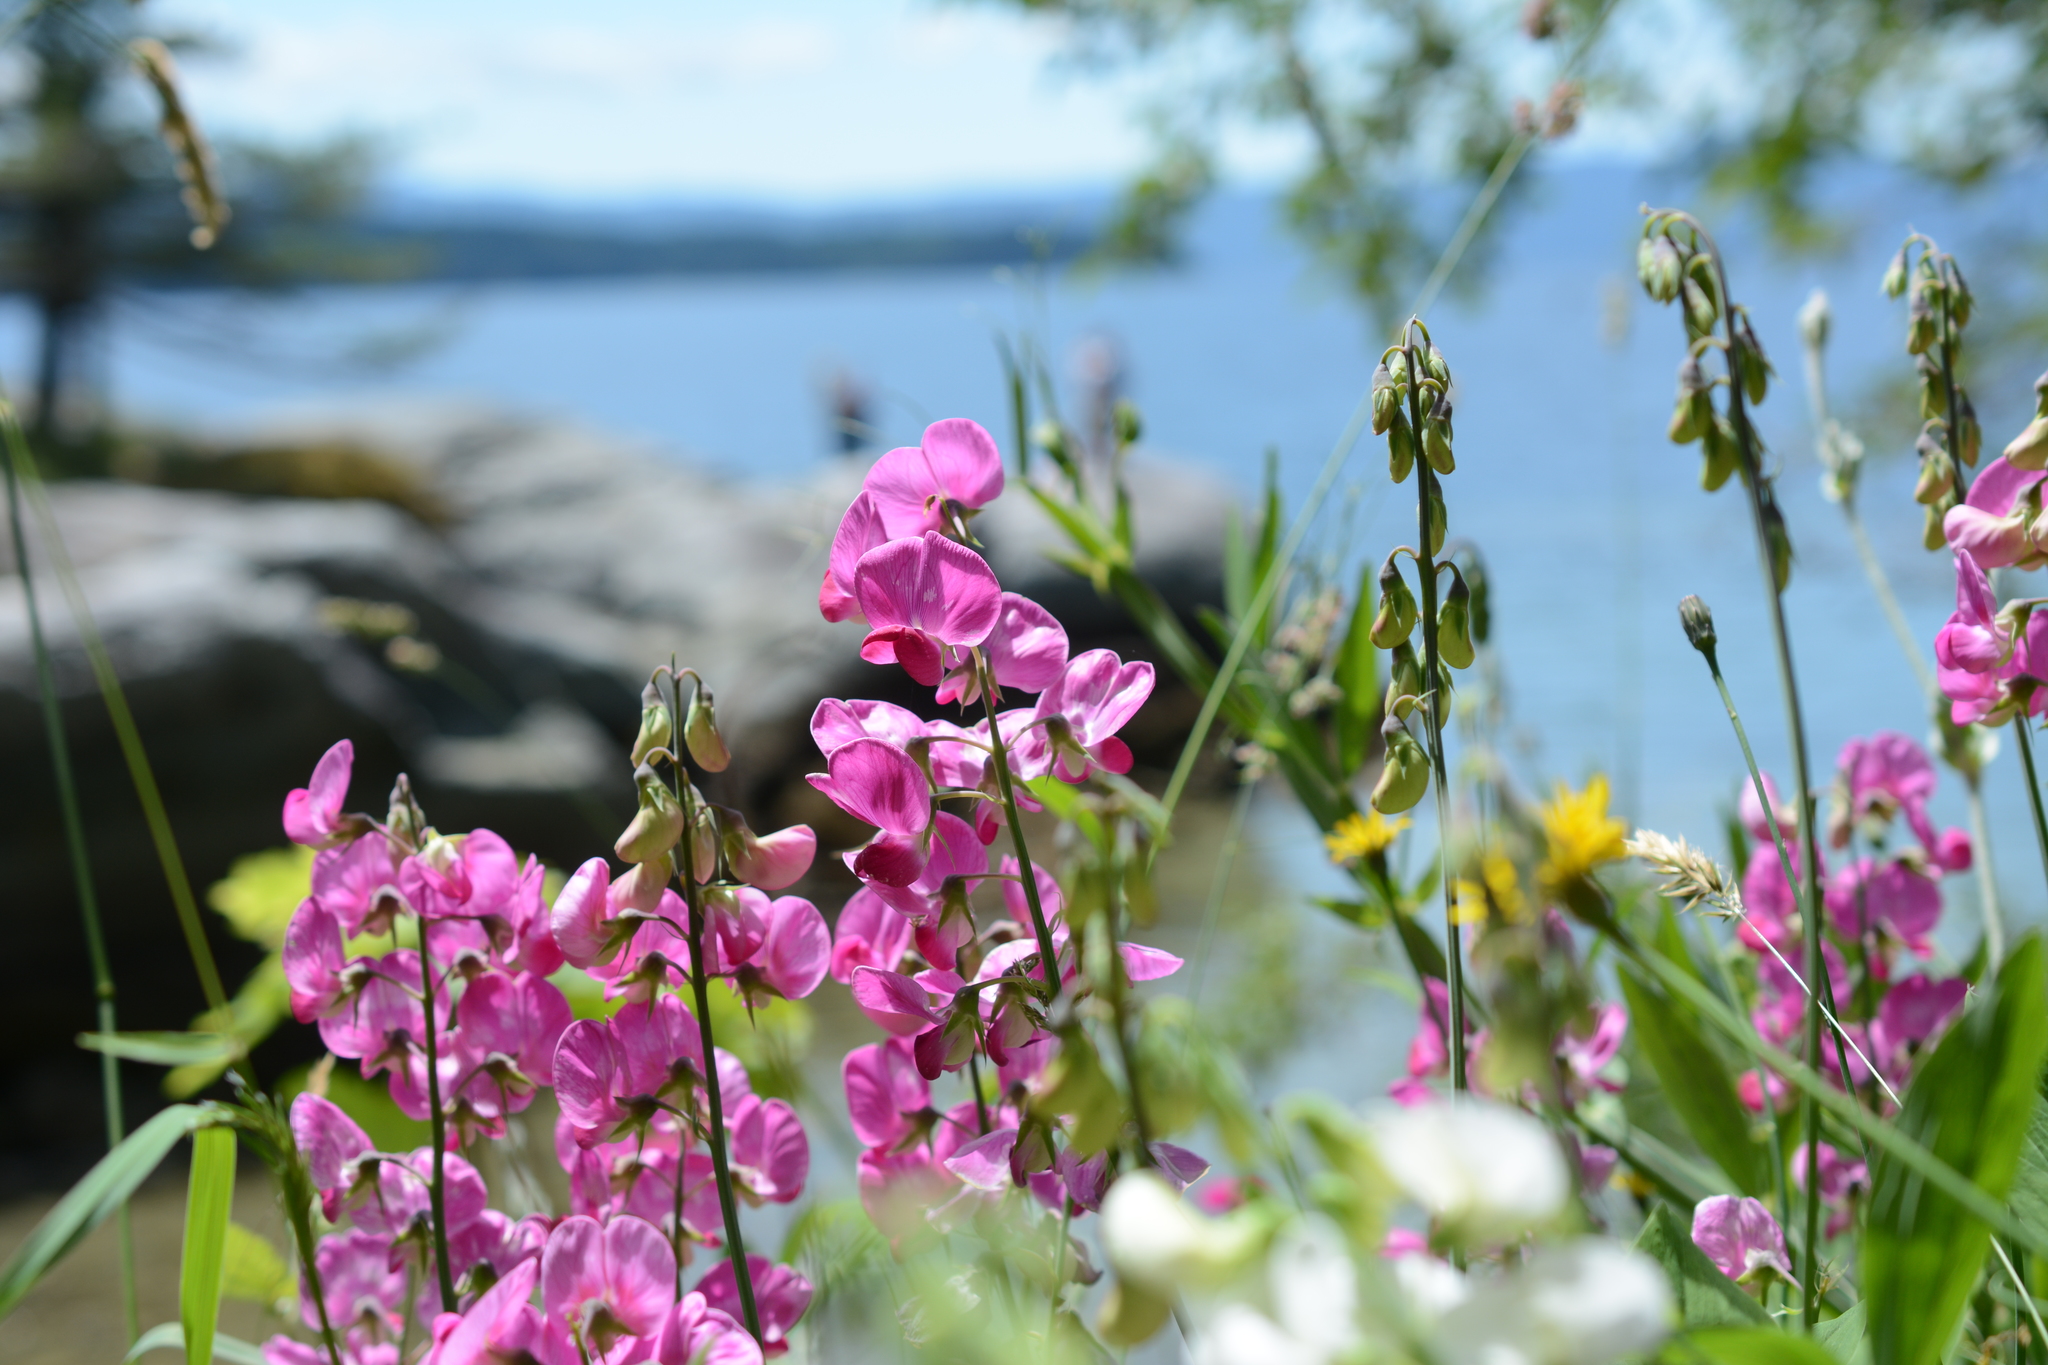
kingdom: Plantae
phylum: Tracheophyta
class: Magnoliopsida
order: Fabales
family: Fabaceae
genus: Lathyrus
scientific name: Lathyrus latifolius
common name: Perennial pea
